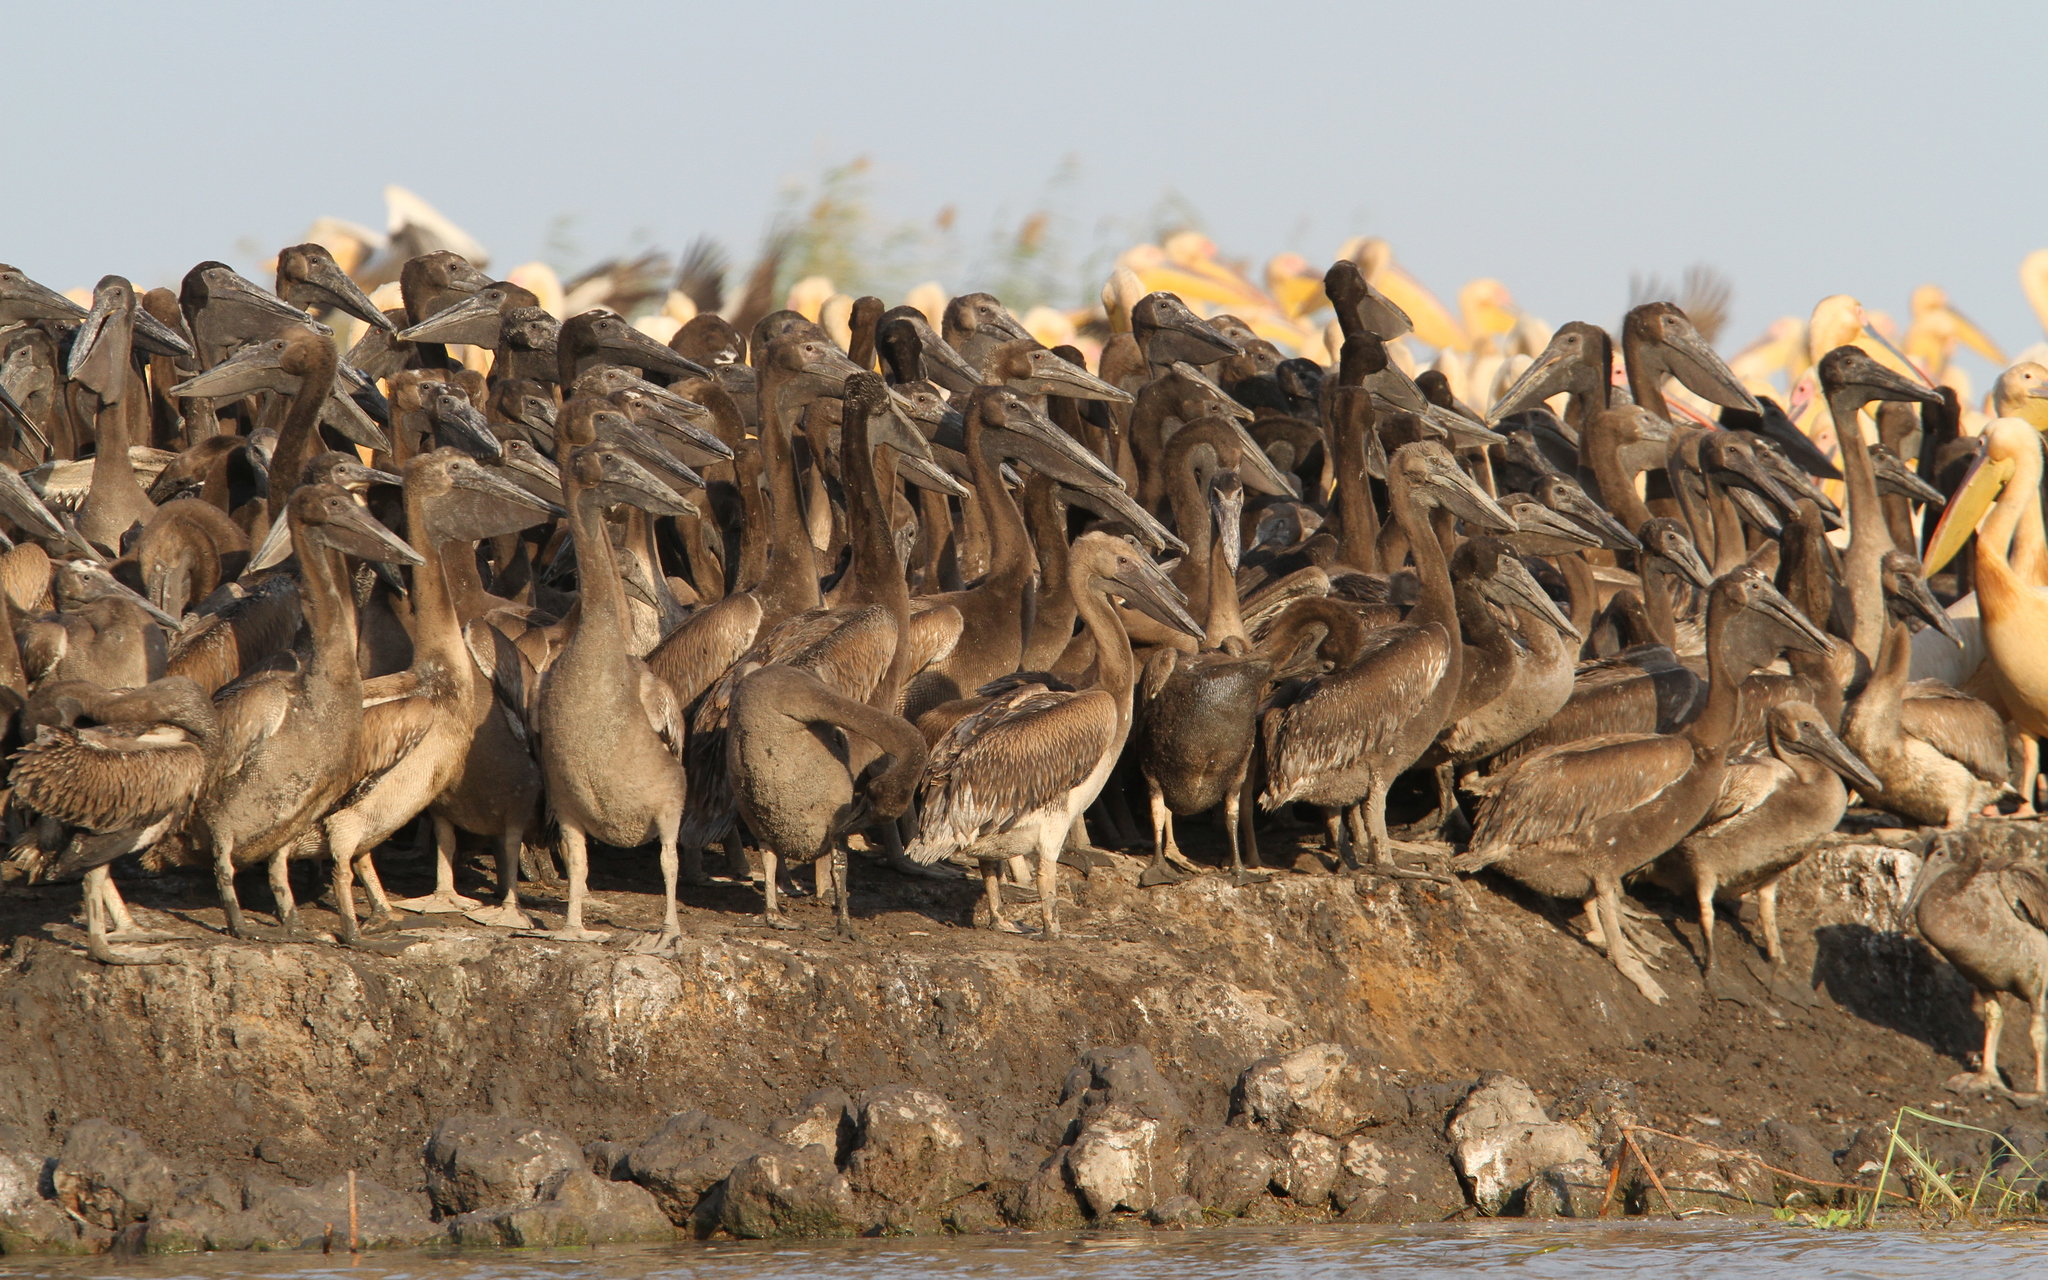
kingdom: Animalia
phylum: Chordata
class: Aves
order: Pelecaniformes
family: Pelecanidae
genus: Pelecanus
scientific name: Pelecanus onocrotalus
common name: Great white pelican
